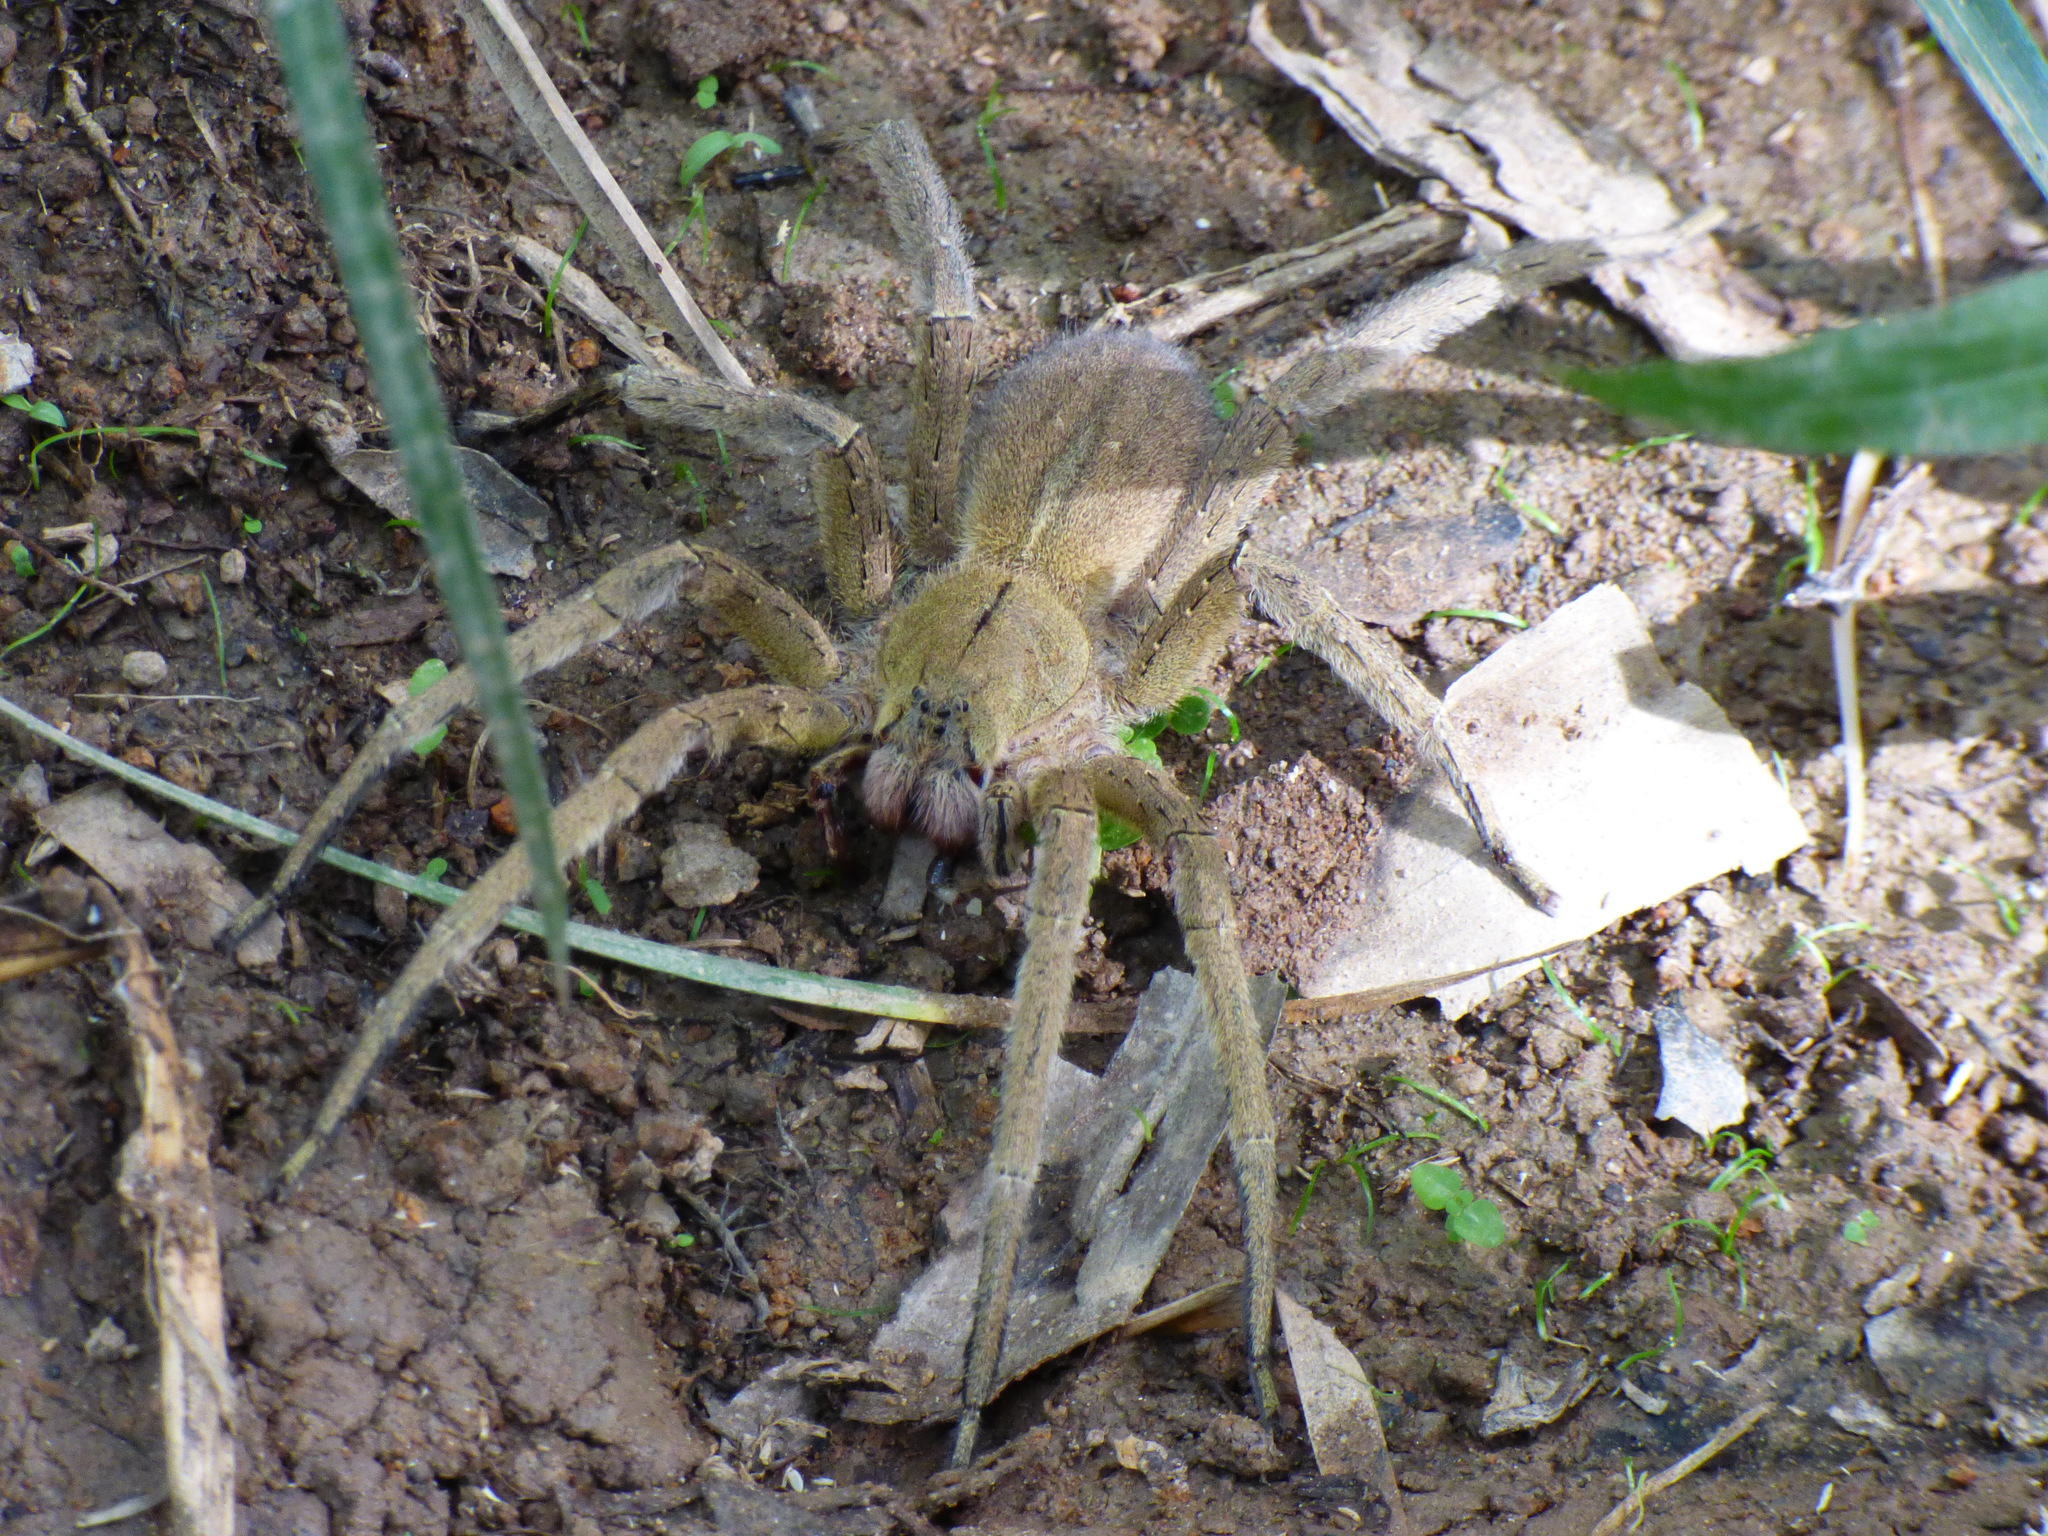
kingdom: Animalia
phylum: Arthropoda
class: Arachnida
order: Araneae
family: Ctenidae
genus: Phoneutria
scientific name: Phoneutria depilata
